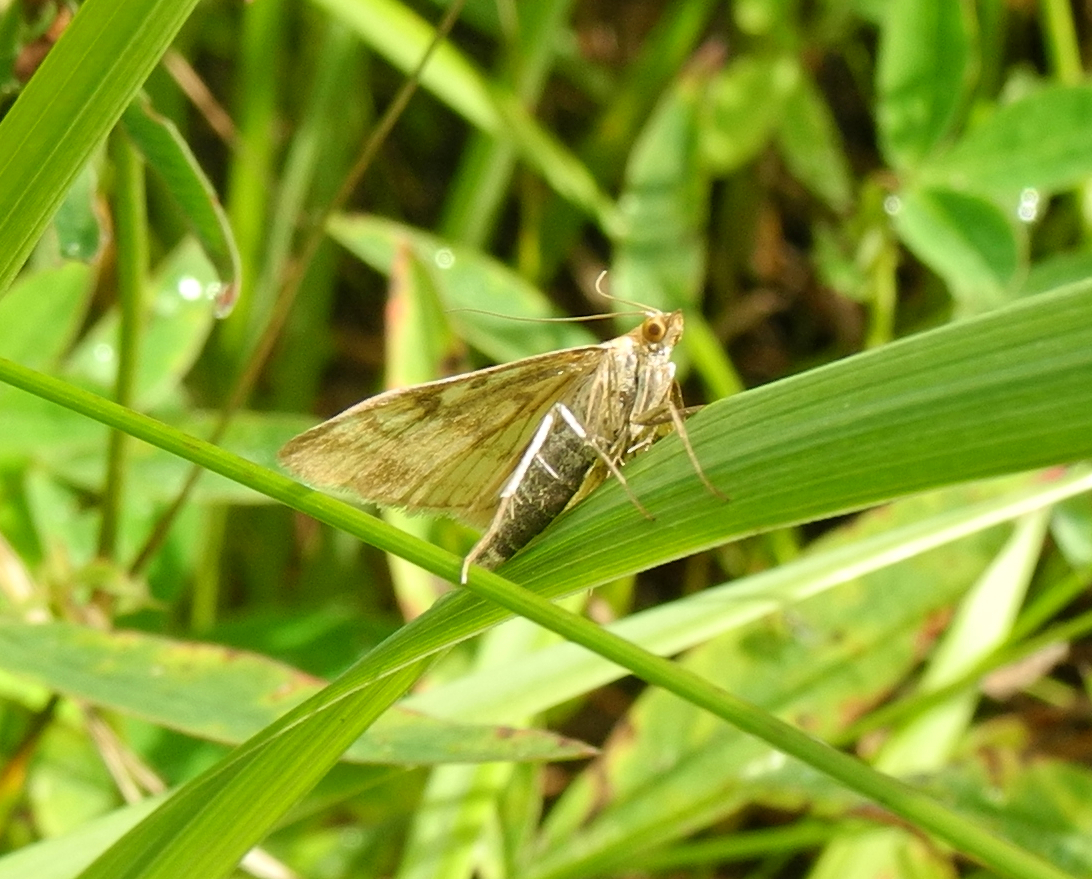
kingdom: Animalia
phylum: Arthropoda
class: Insecta
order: Lepidoptera
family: Crambidae
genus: Sitochroa
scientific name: Sitochroa verticalis
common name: Lesser pearl
